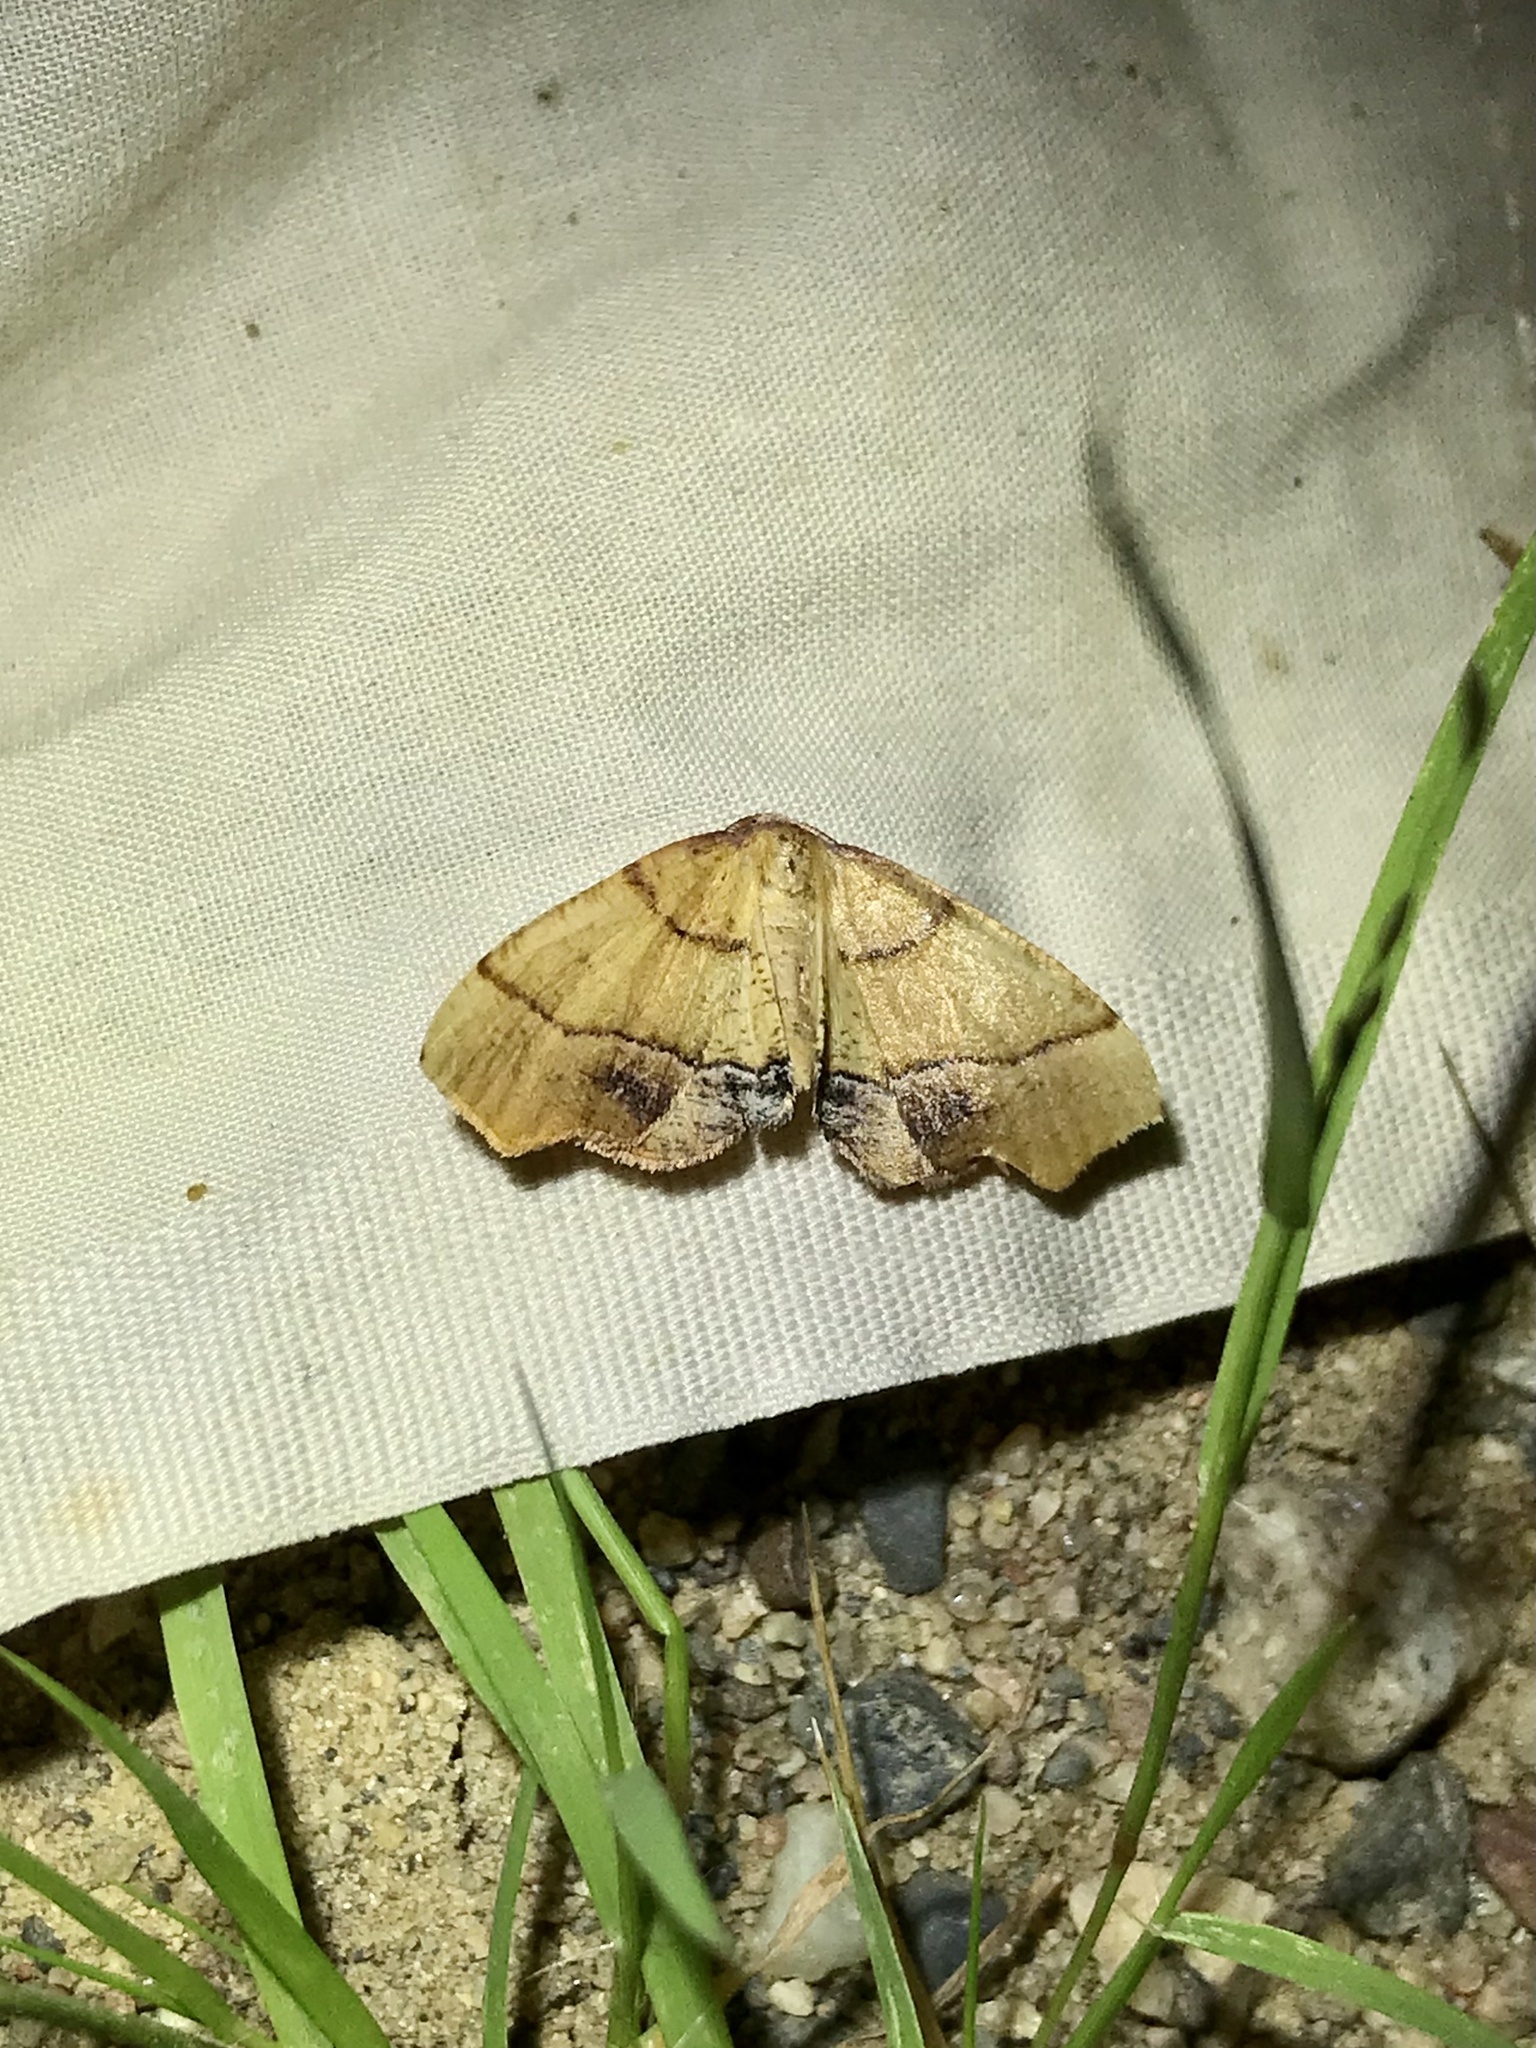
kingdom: Animalia
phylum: Arthropoda
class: Insecta
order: Lepidoptera
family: Geometridae
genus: Plagodis
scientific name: Plagodis phlogosaria
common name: Straight-lined plagodis
